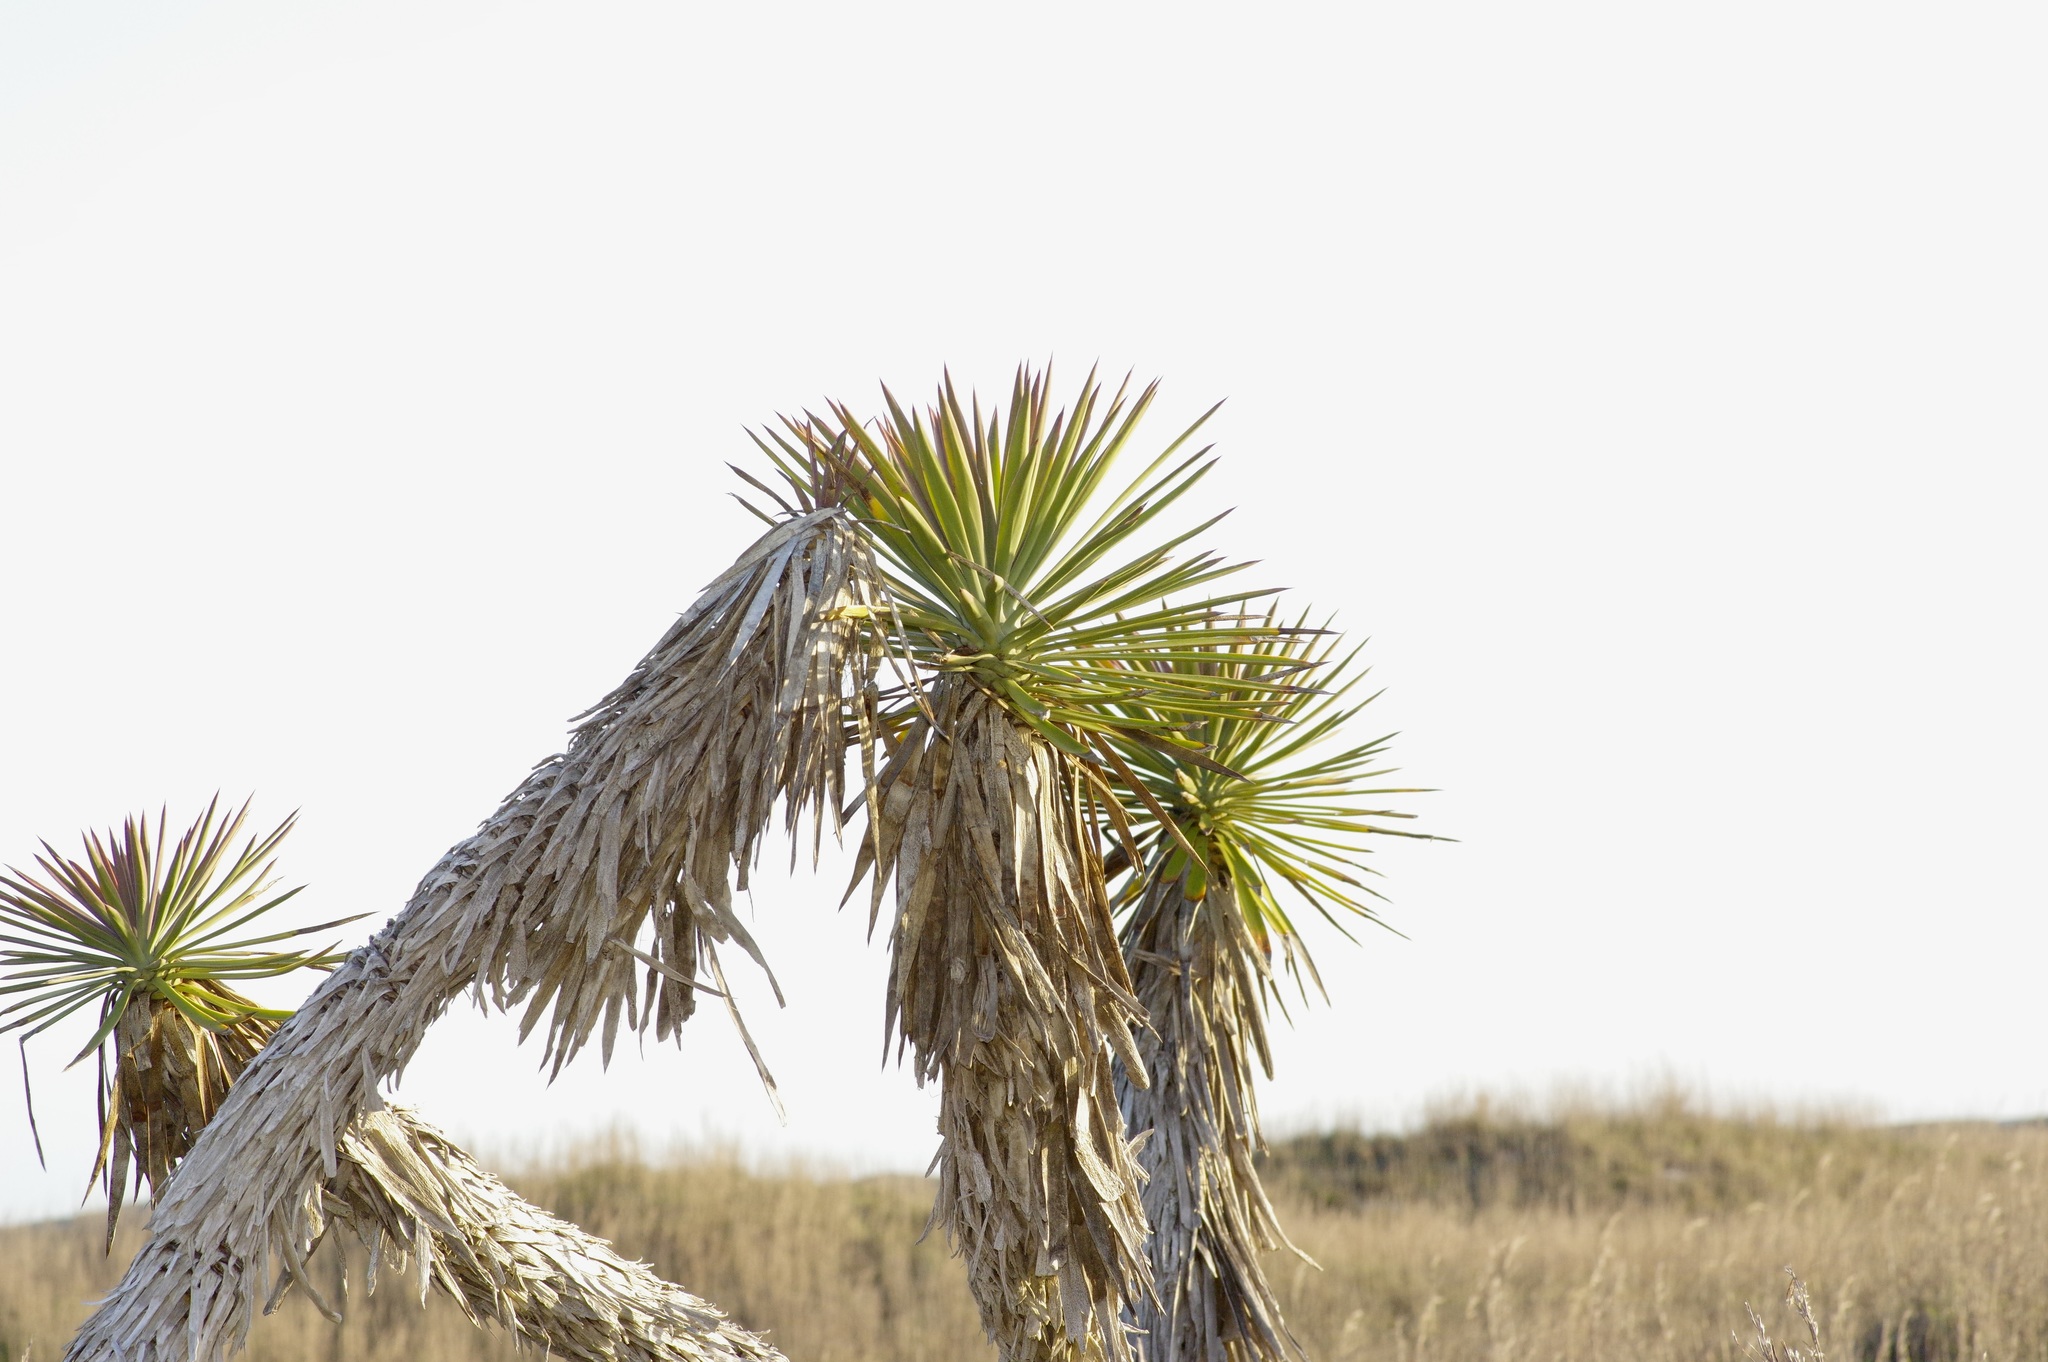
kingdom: Plantae
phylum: Tracheophyta
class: Liliopsida
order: Asparagales
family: Asparagaceae
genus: Yucca
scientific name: Yucca aloifolia
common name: Aloe yucca
